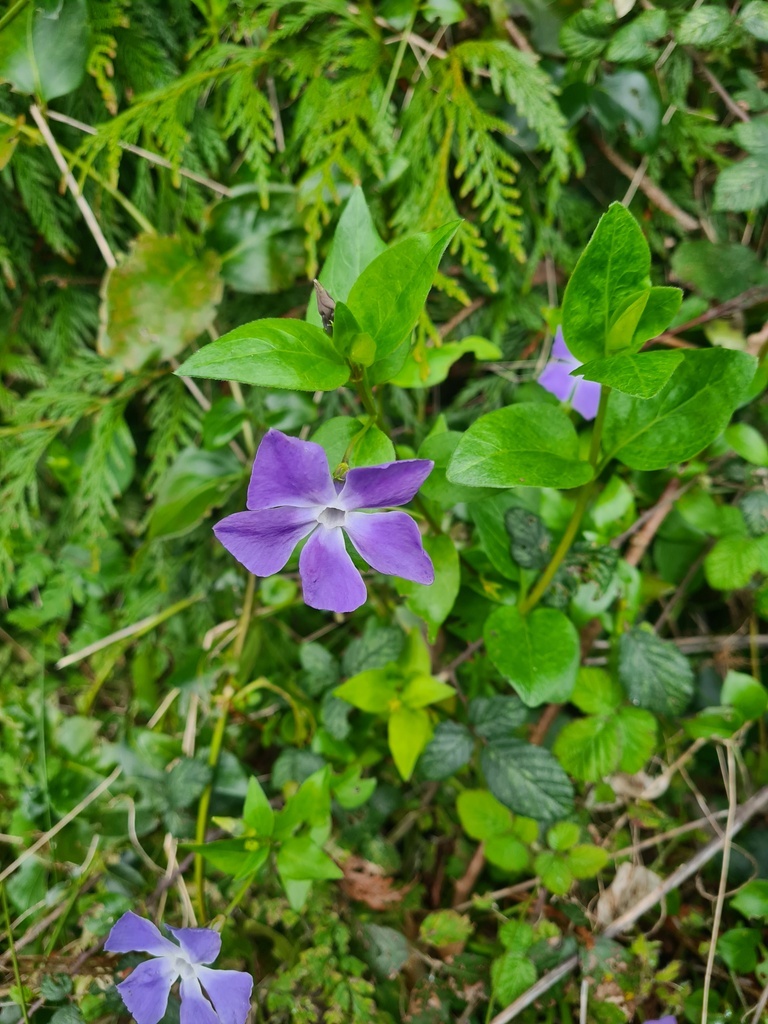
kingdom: Plantae
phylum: Tracheophyta
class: Magnoliopsida
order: Gentianales
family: Apocynaceae
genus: Vinca
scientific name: Vinca major
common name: Greater periwinkle
